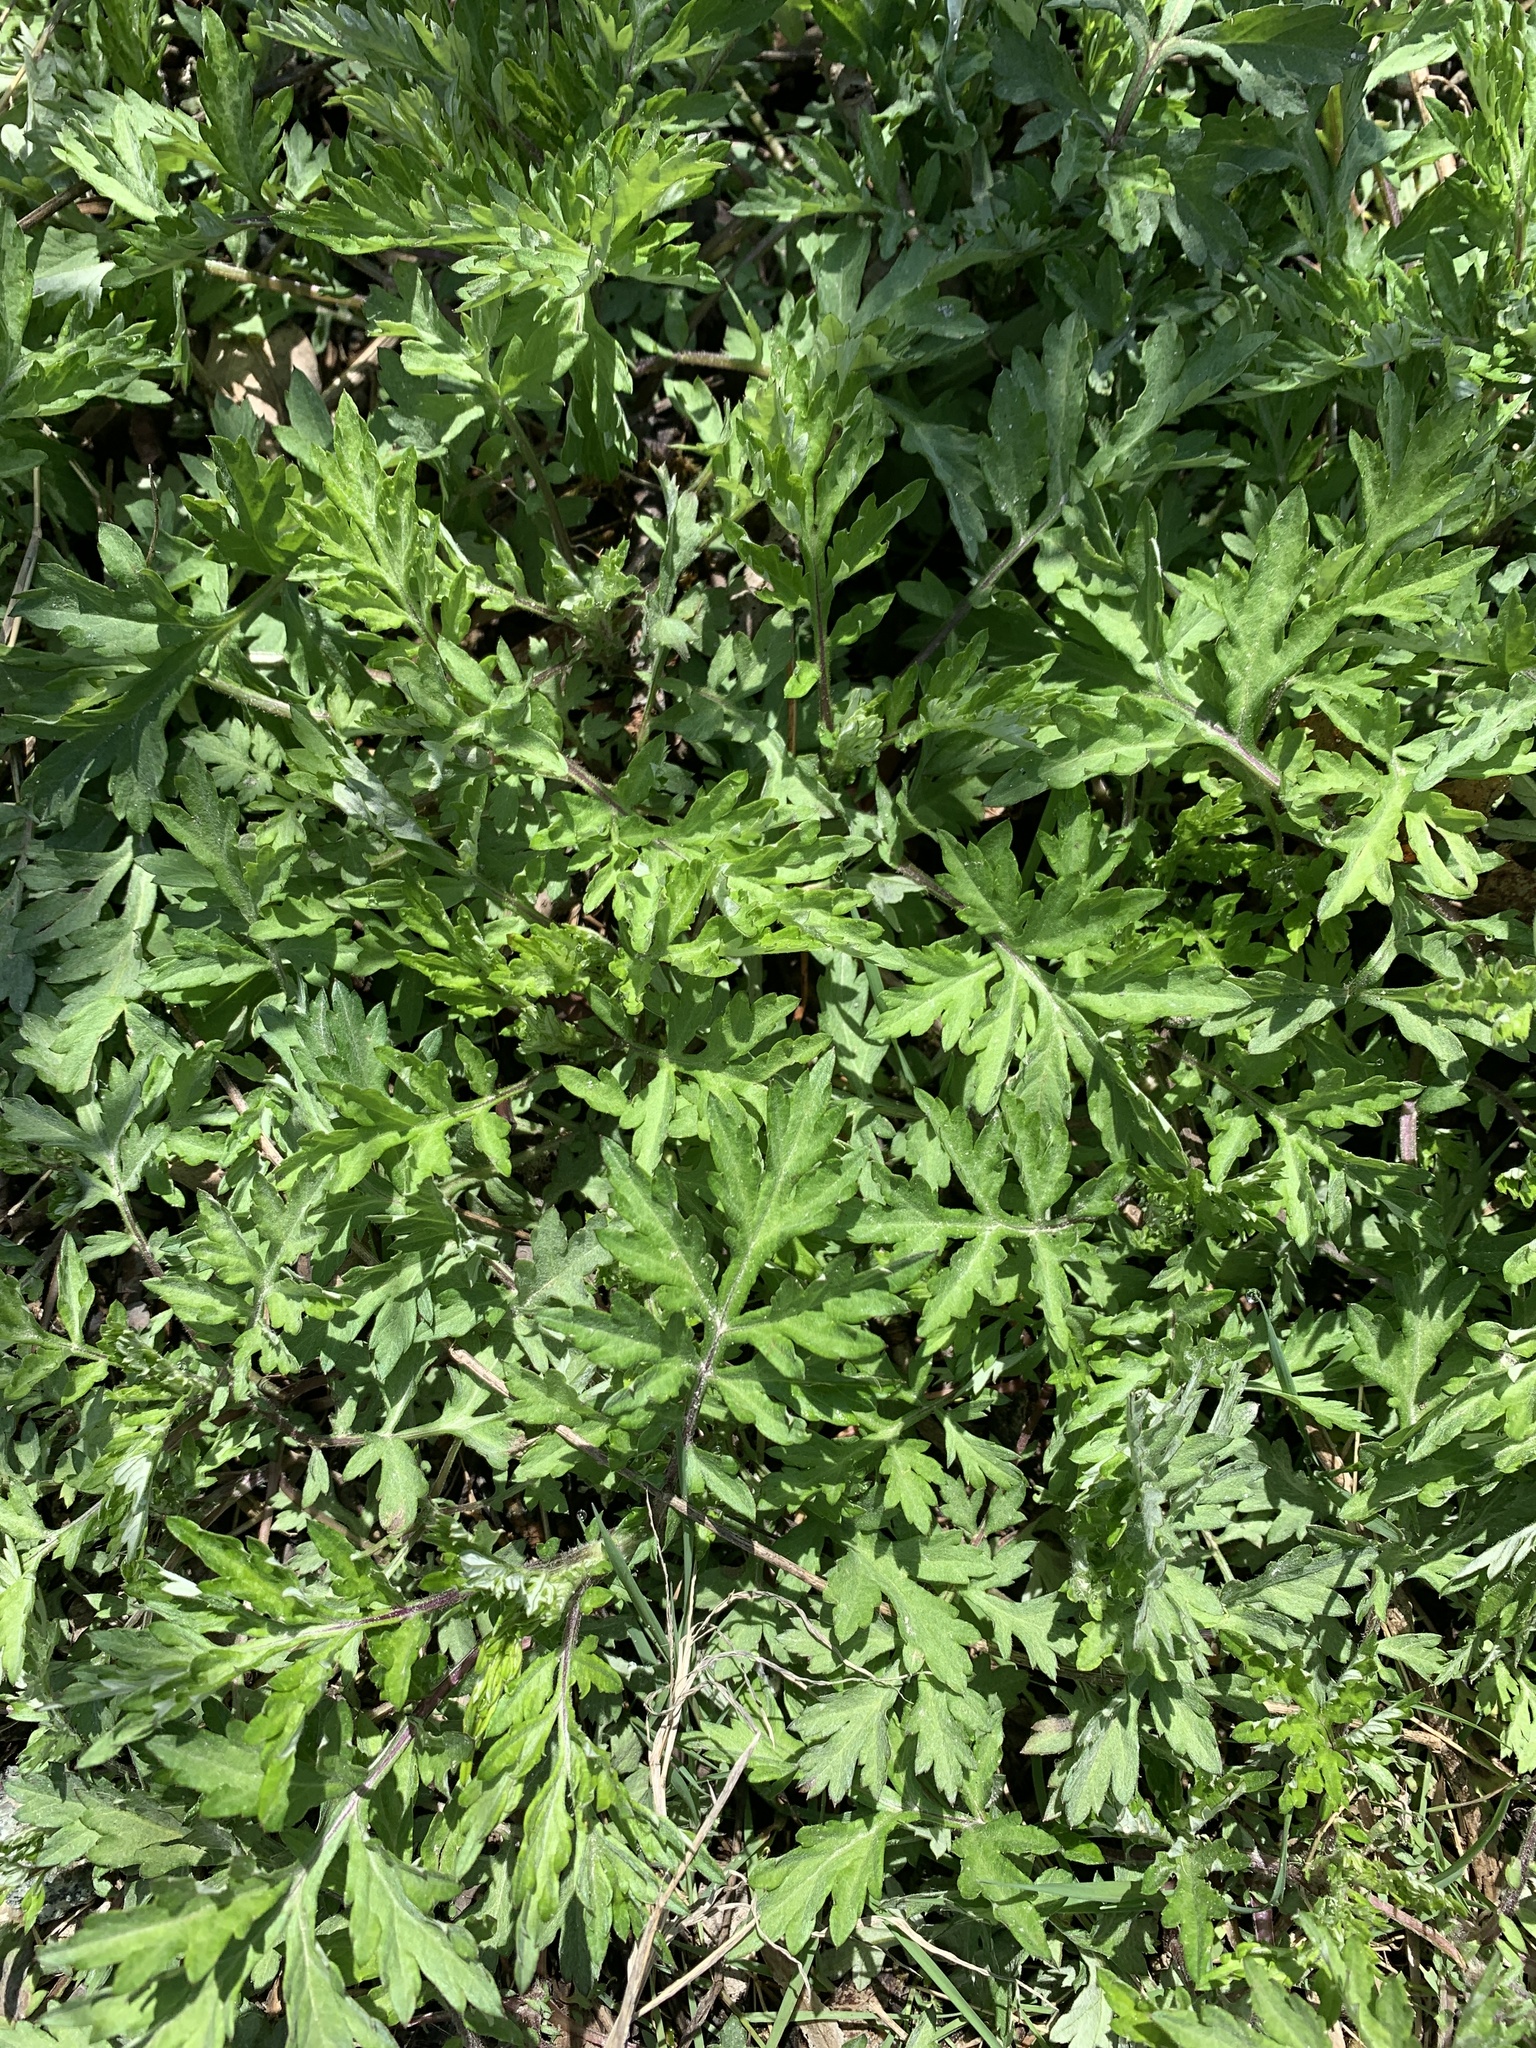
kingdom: Plantae
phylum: Tracheophyta
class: Magnoliopsida
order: Asterales
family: Asteraceae
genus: Artemisia
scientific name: Artemisia vulgaris
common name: Mugwort
